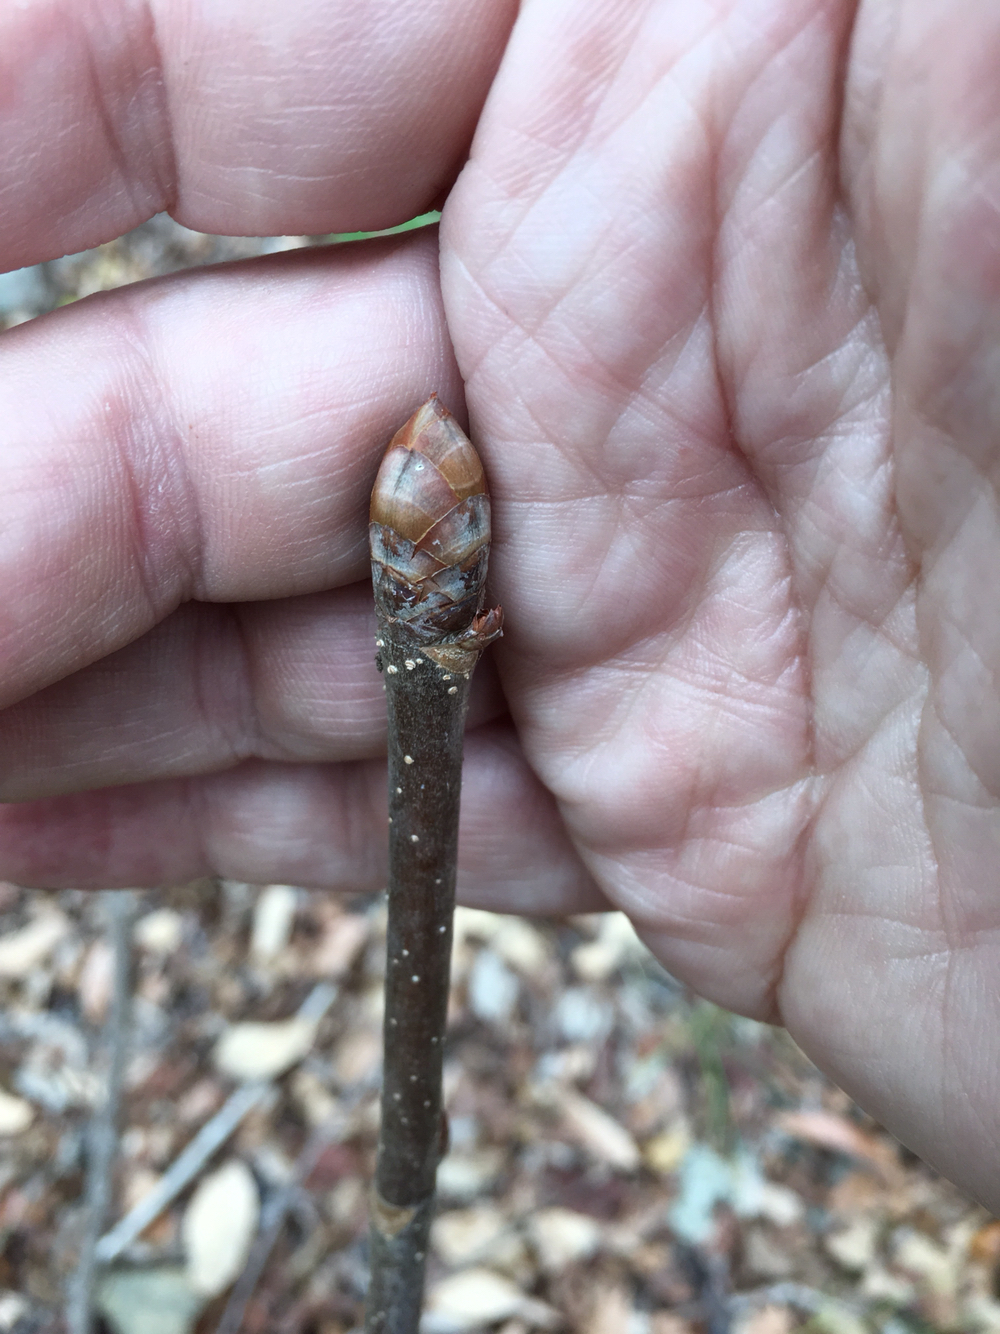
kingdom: Plantae
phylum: Tracheophyta
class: Magnoliopsida
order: Sapindales
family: Sapindaceae
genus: Aesculus
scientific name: Aesculus sylvatica
